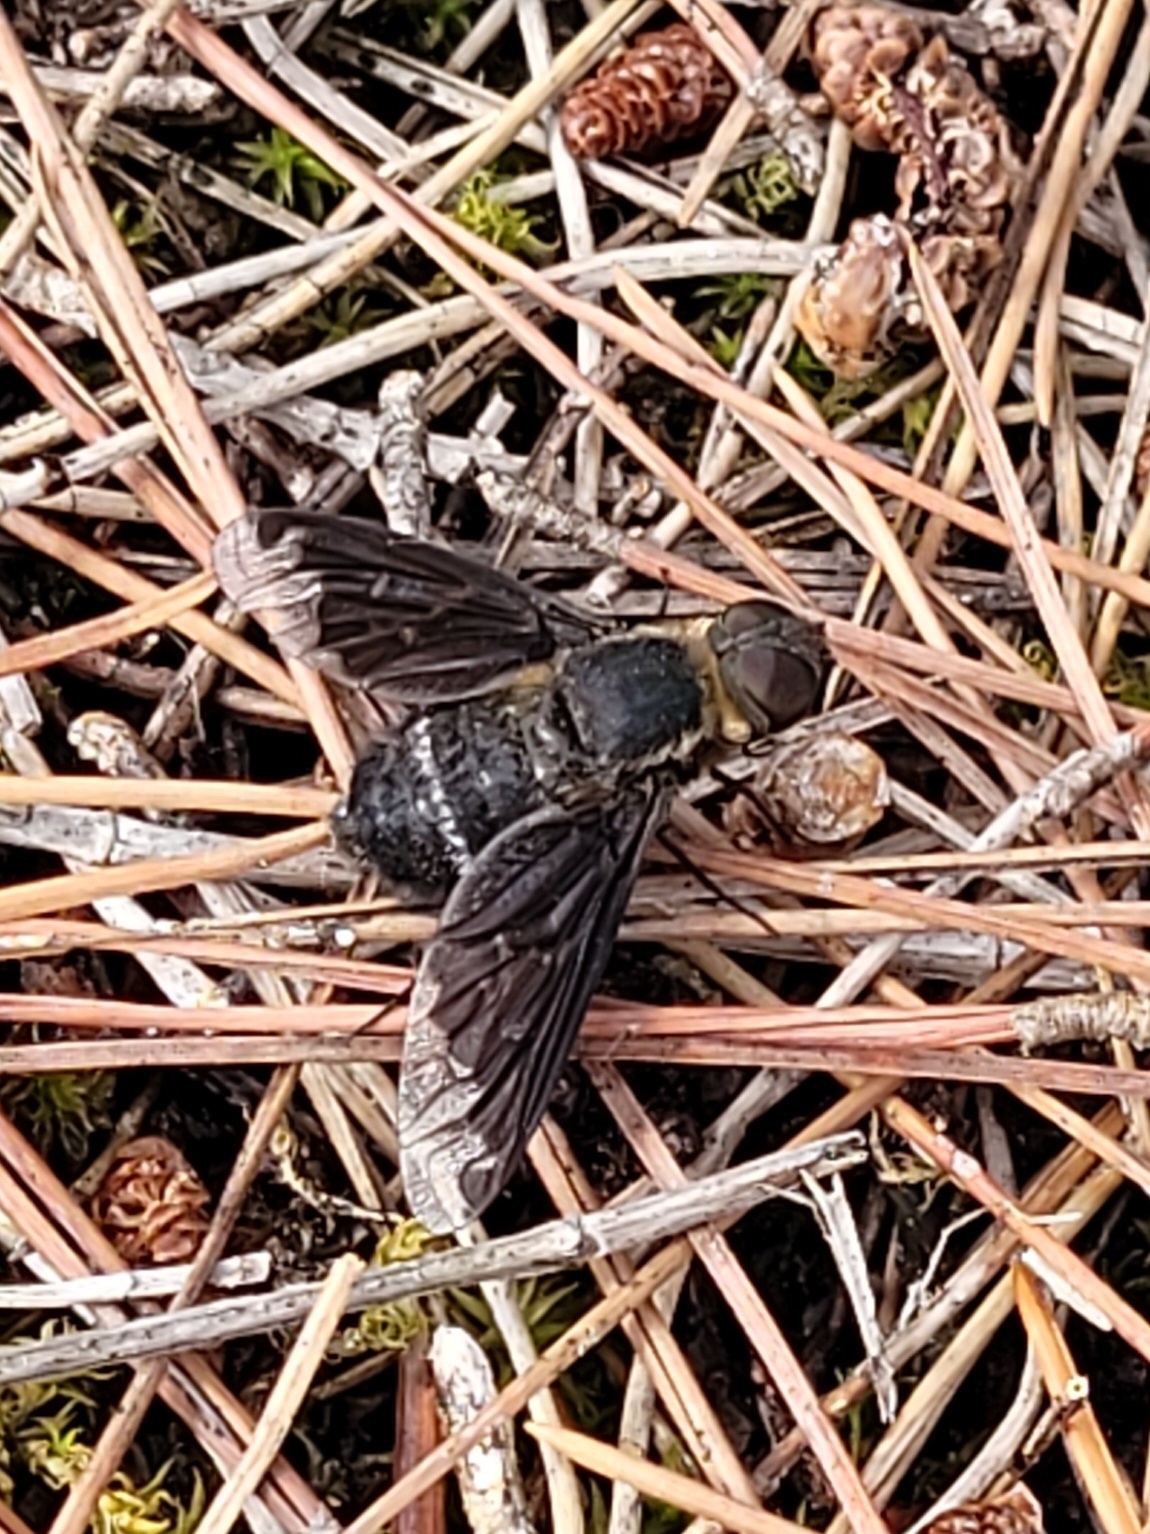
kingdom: Animalia
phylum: Arthropoda
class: Insecta
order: Diptera
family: Bombyliidae
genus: Hemipenthes
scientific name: Hemipenthes velutina
